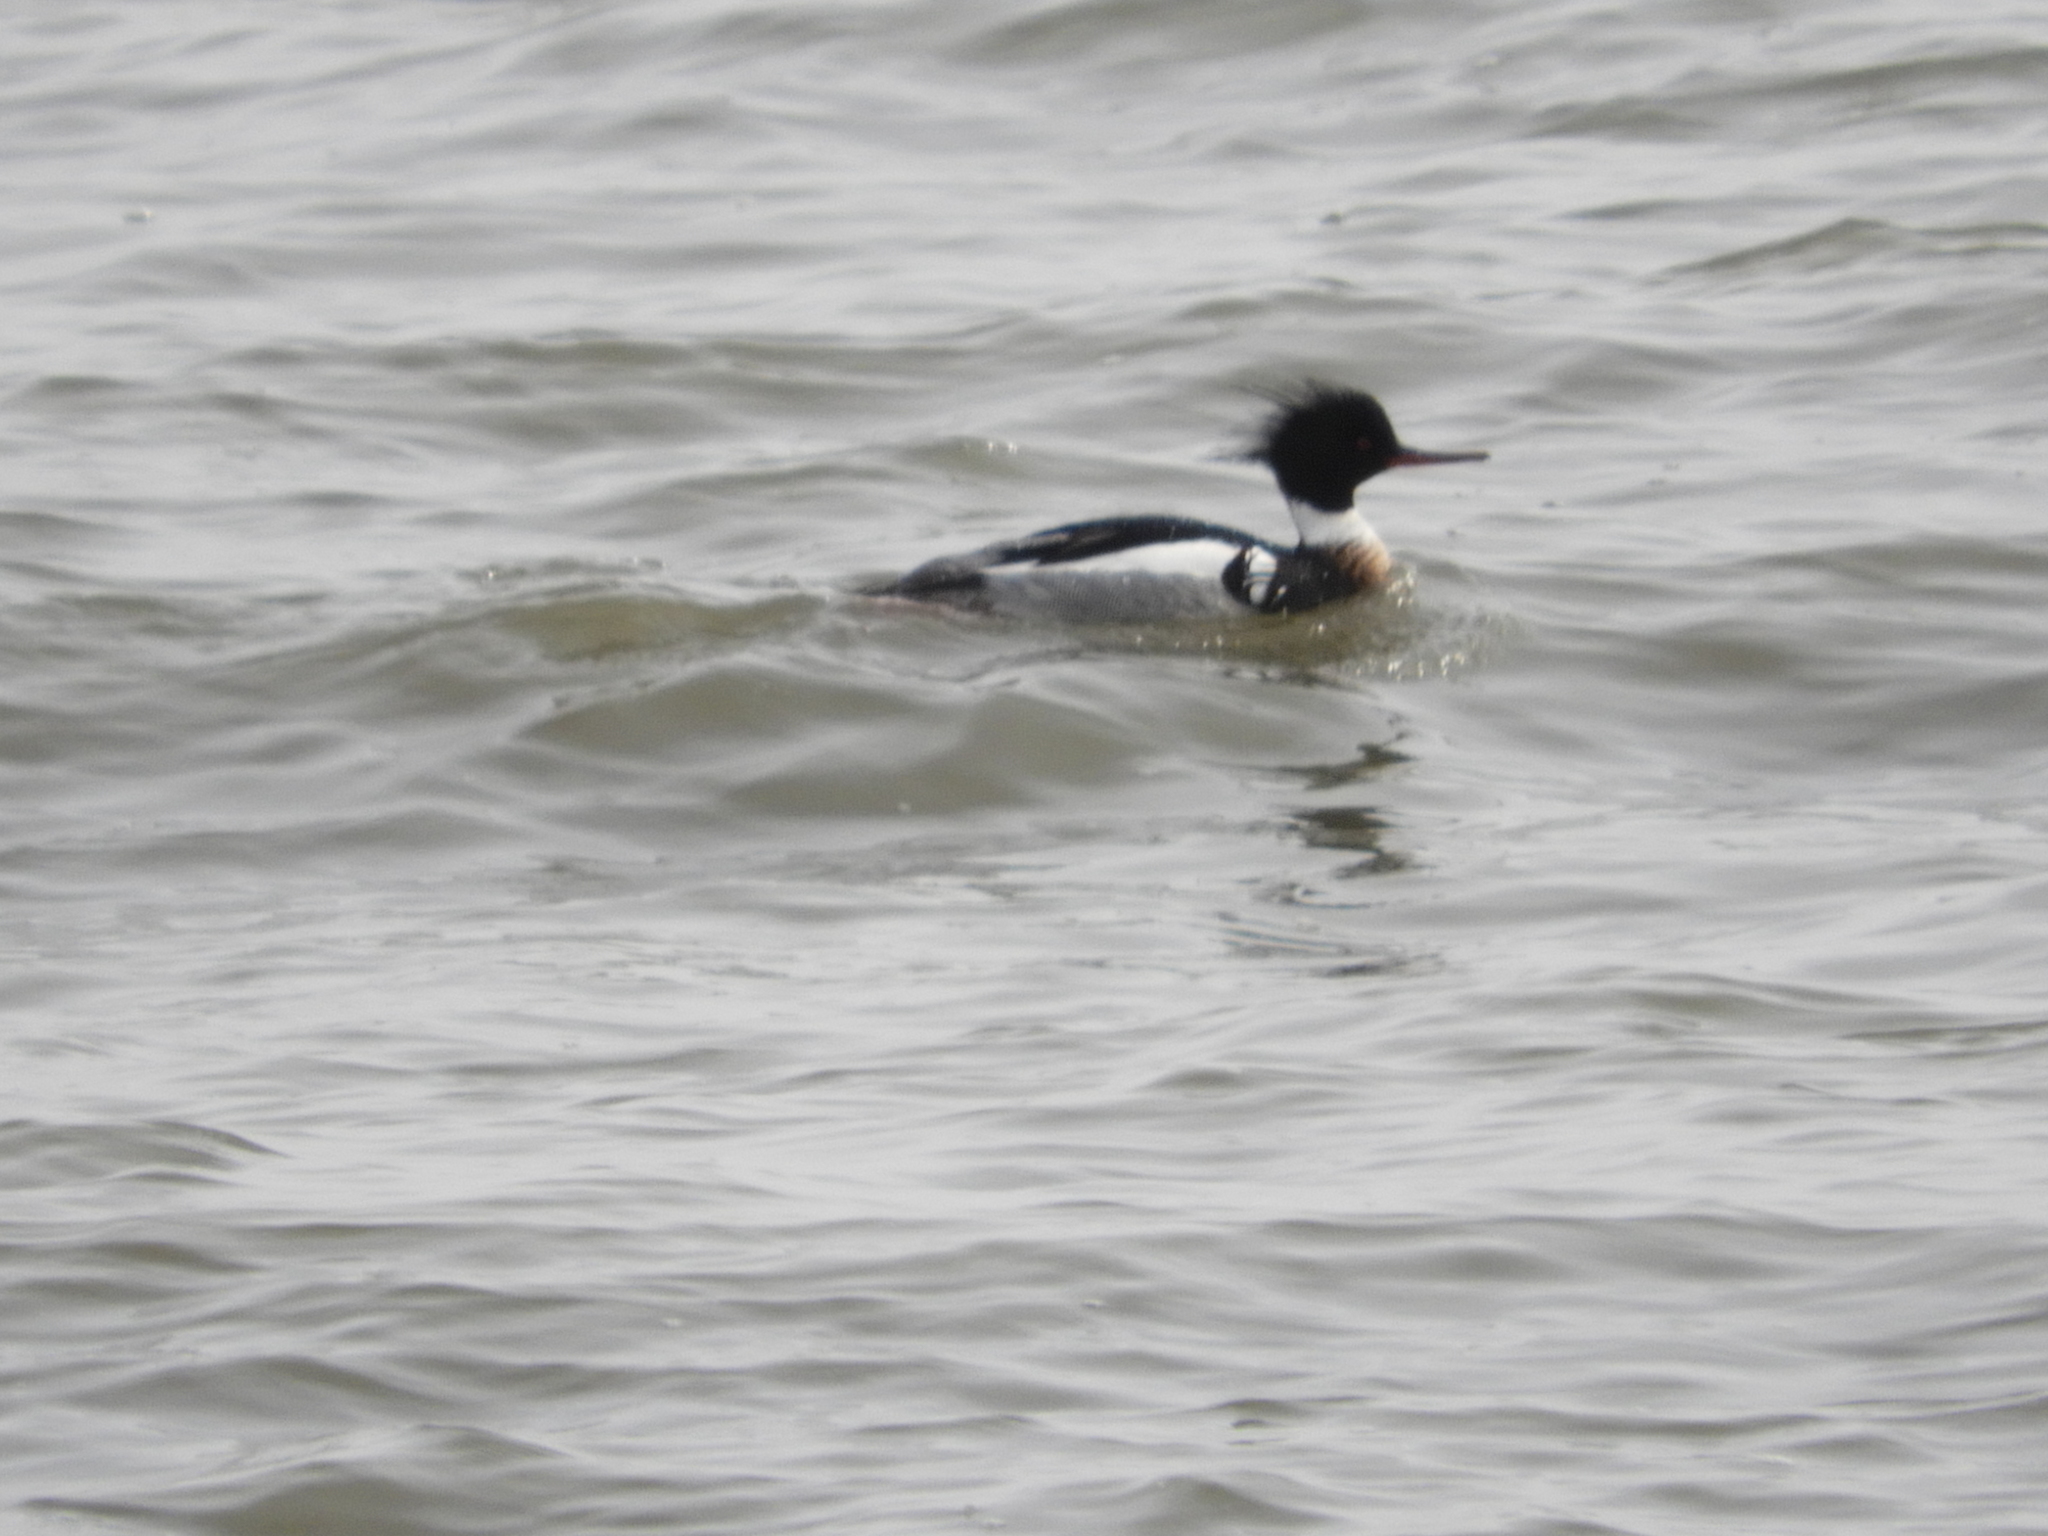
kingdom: Animalia
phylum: Chordata
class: Aves
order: Anseriformes
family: Anatidae
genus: Mergus
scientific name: Mergus serrator
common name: Red-breasted merganser
